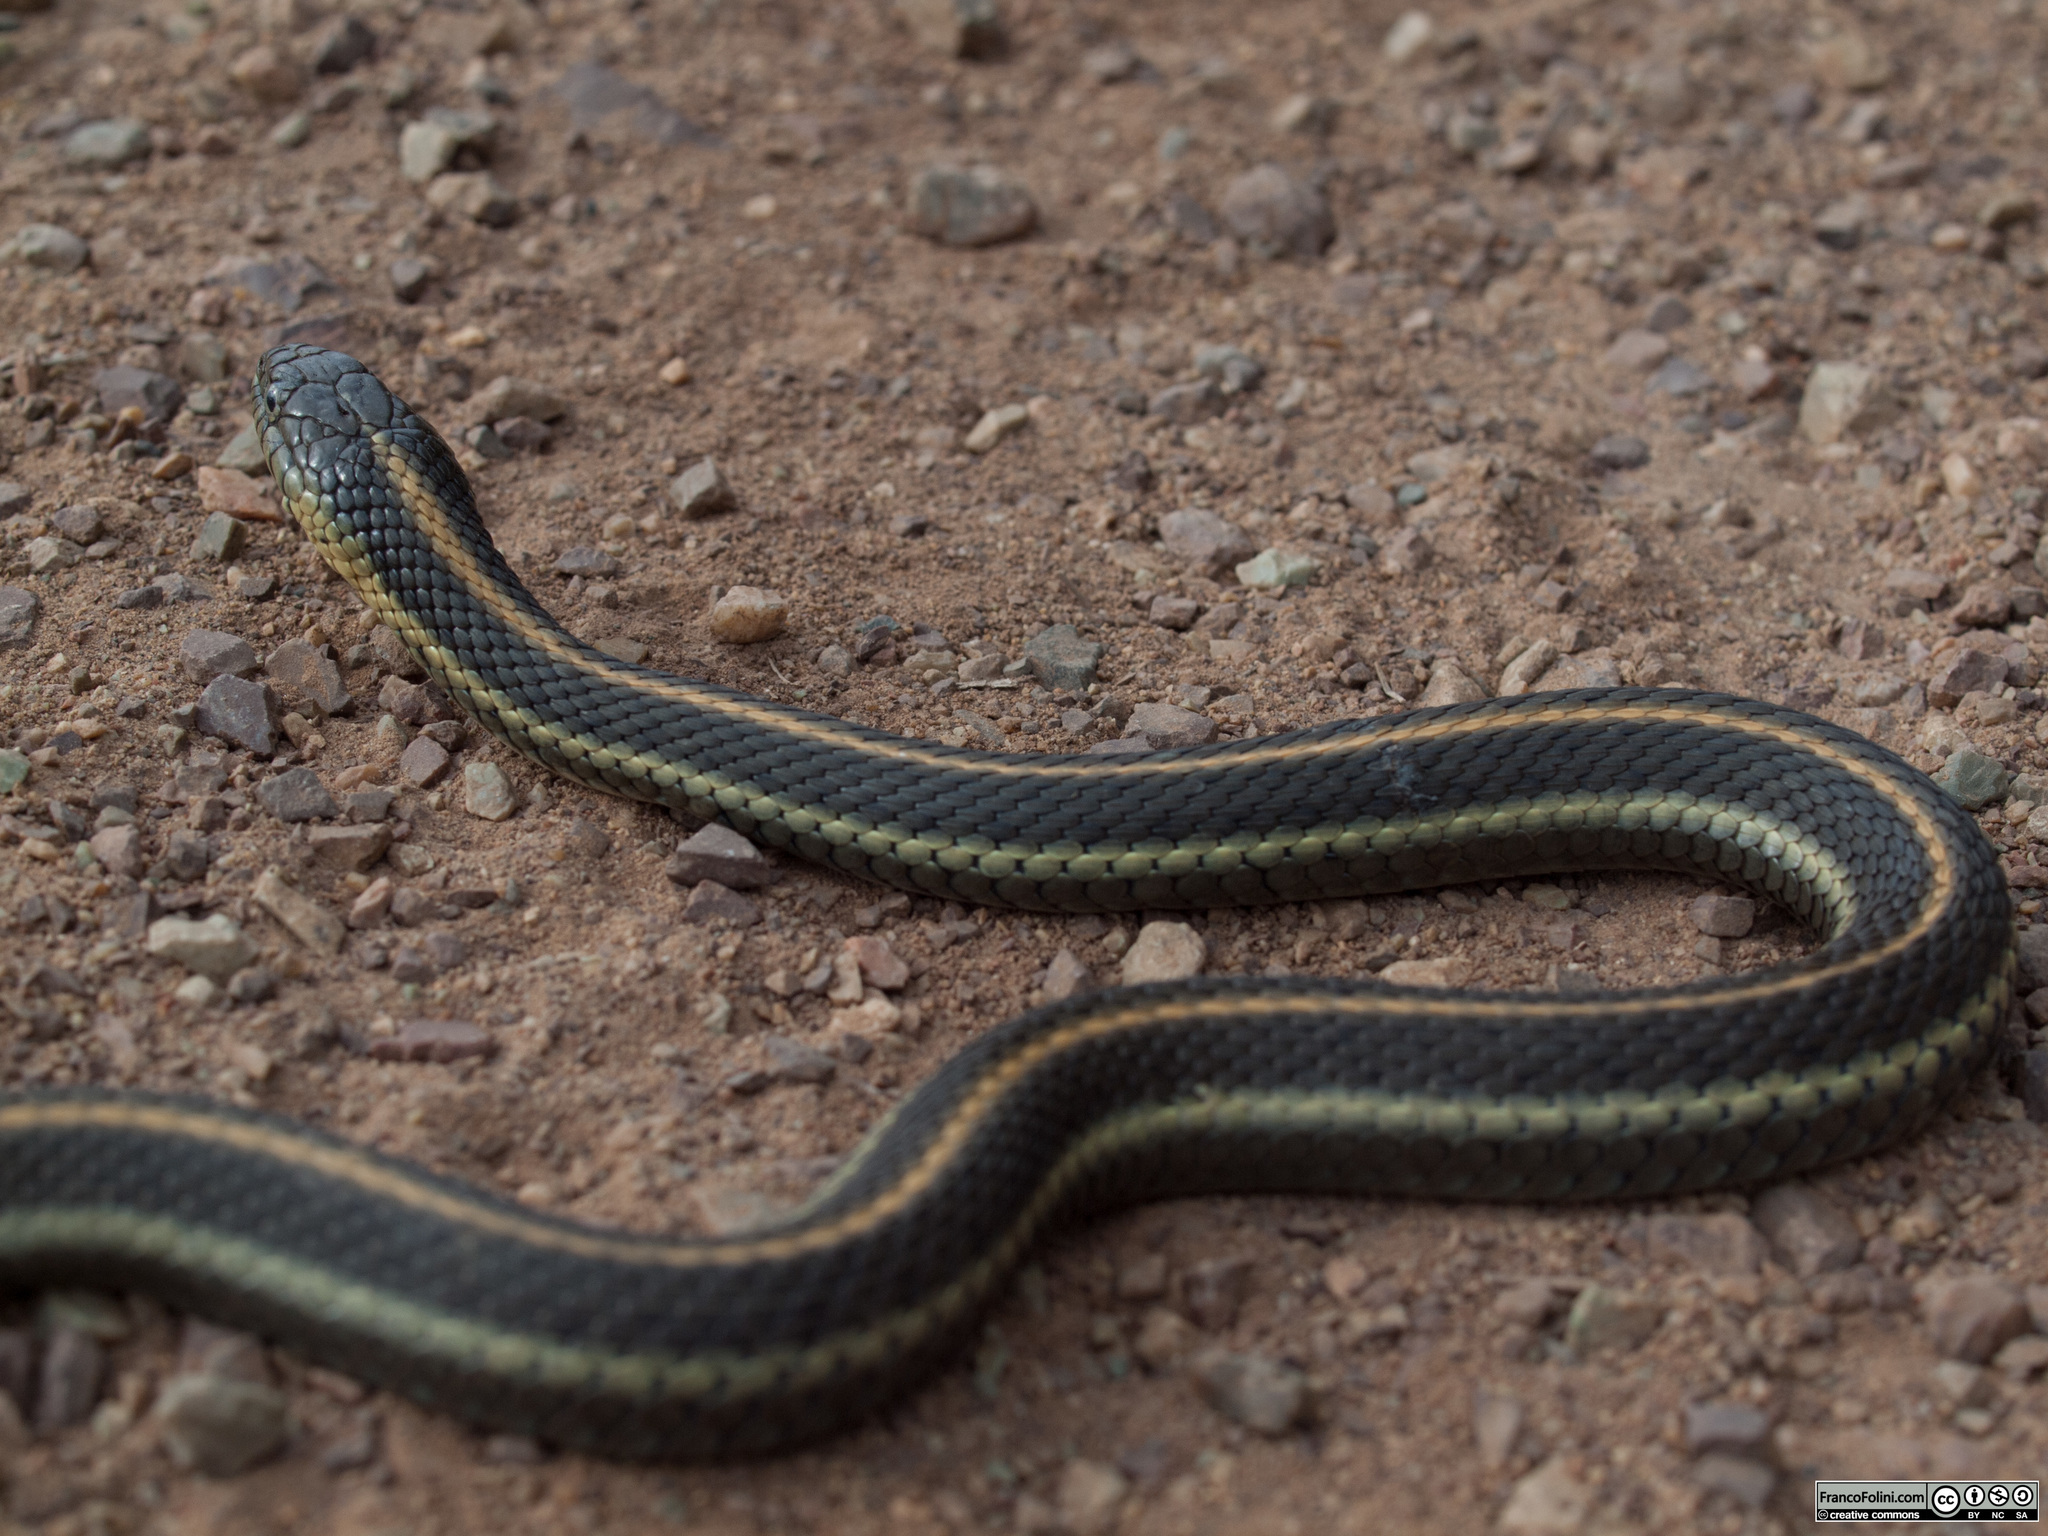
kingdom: Animalia
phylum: Chordata
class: Squamata
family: Colubridae
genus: Thamnophis
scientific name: Thamnophis atratus
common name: Pacific coast aquatic garter snake
